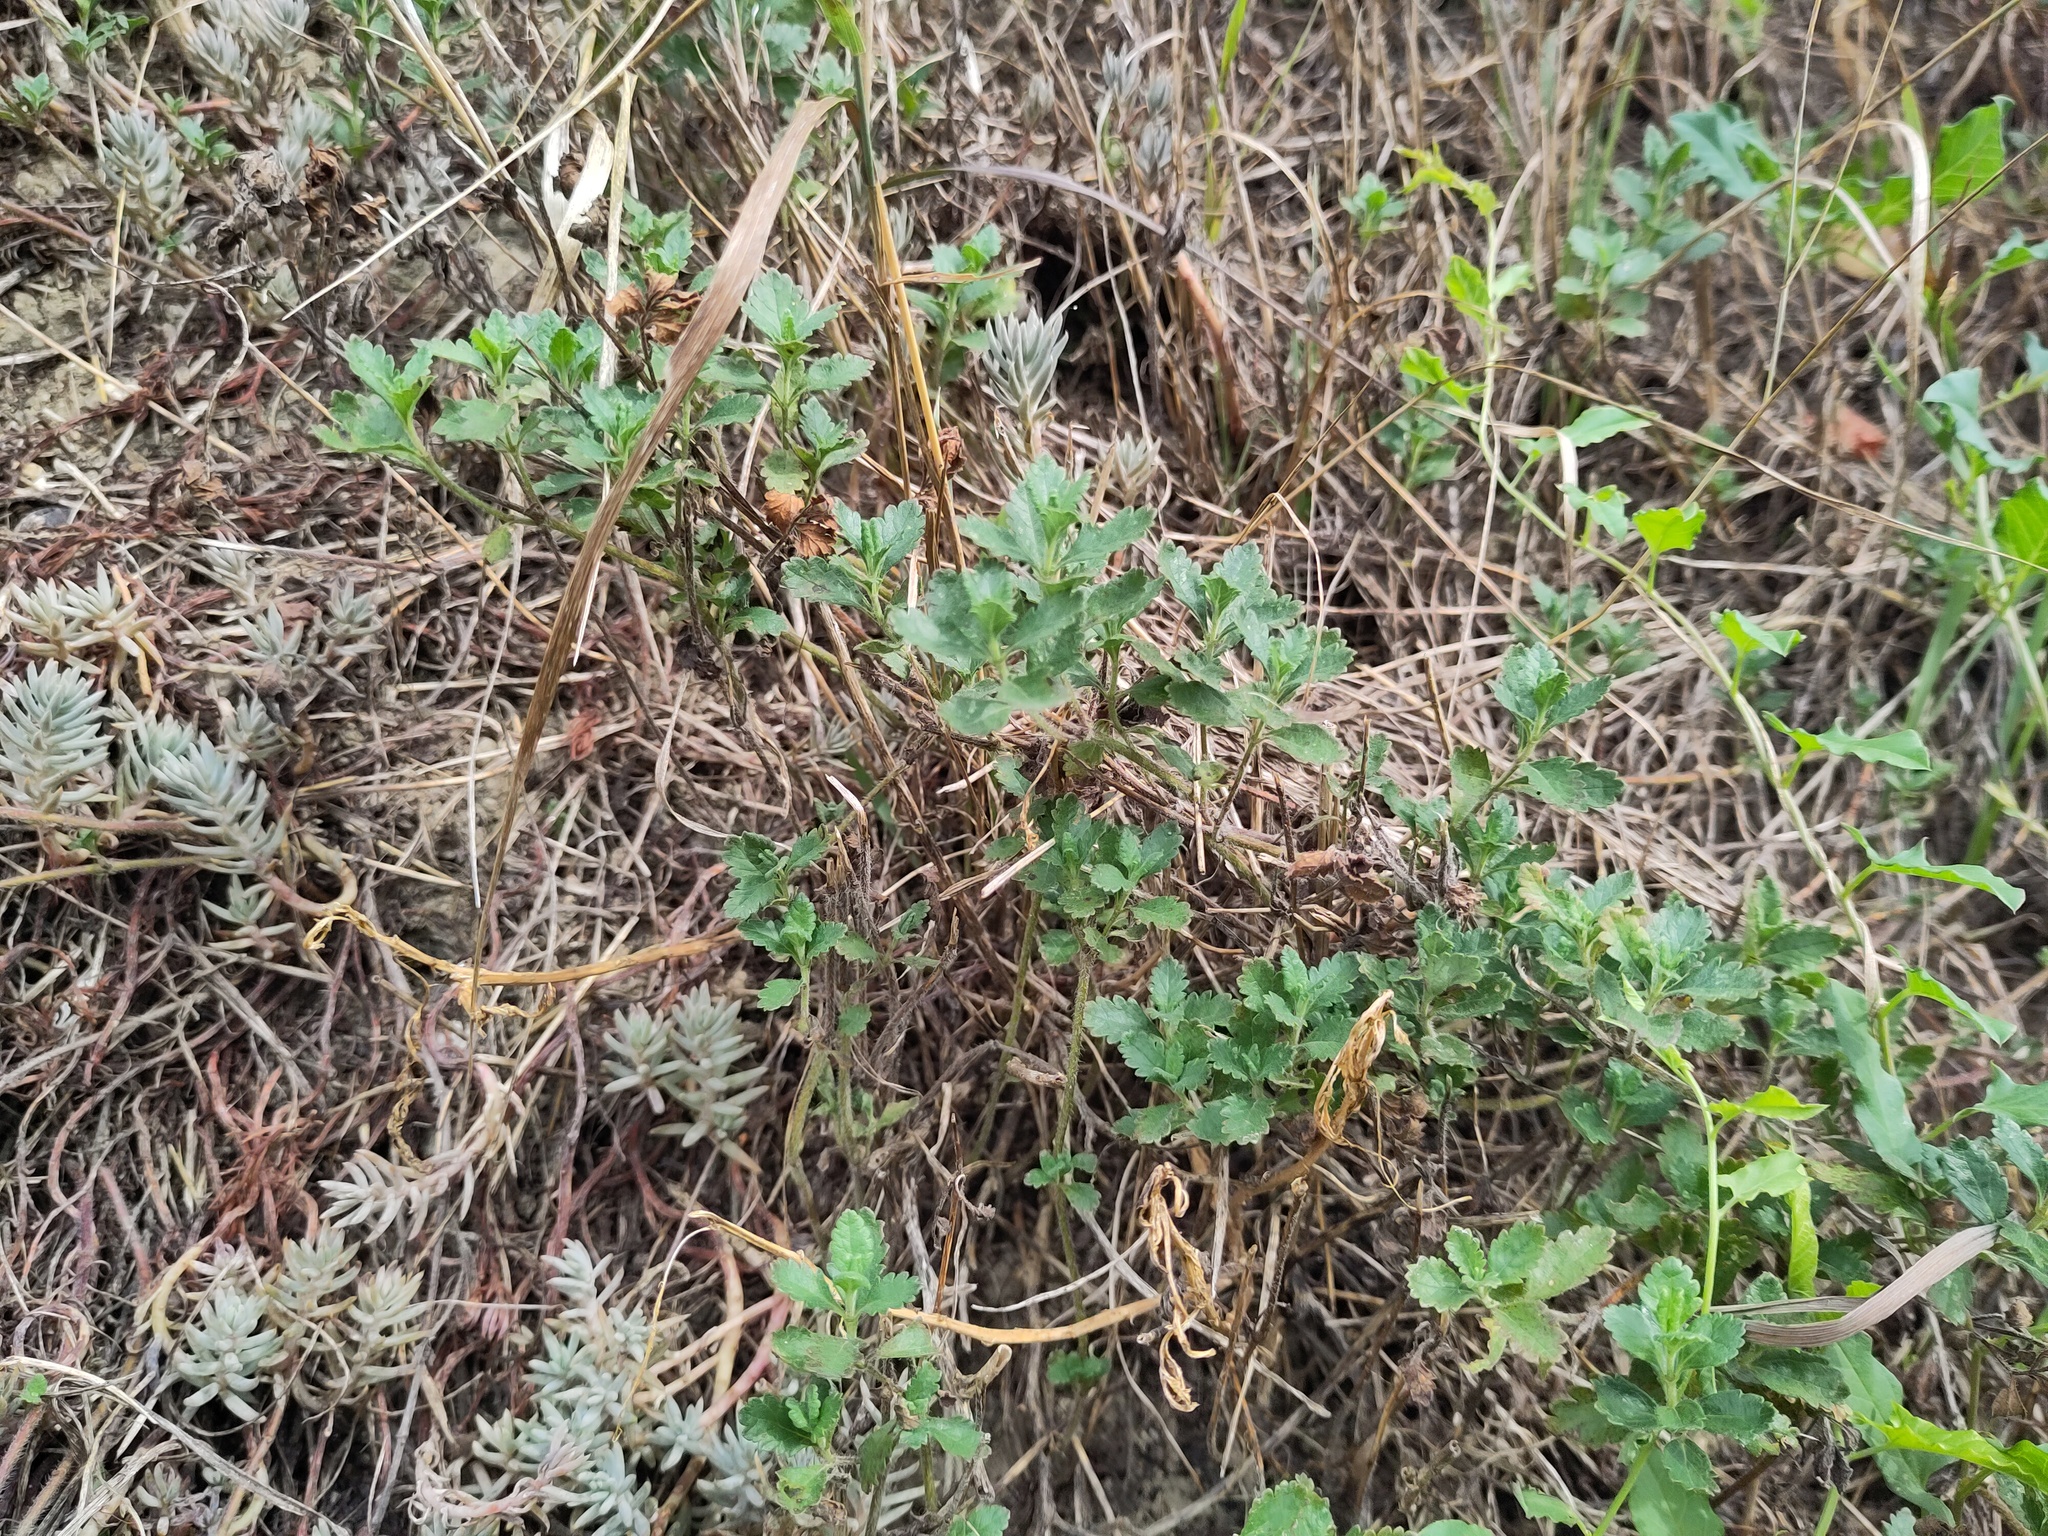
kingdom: Plantae
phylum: Tracheophyta
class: Magnoliopsida
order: Lamiales
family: Lamiaceae
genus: Teucrium
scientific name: Teucrium chamaedrys
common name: Wall germander
